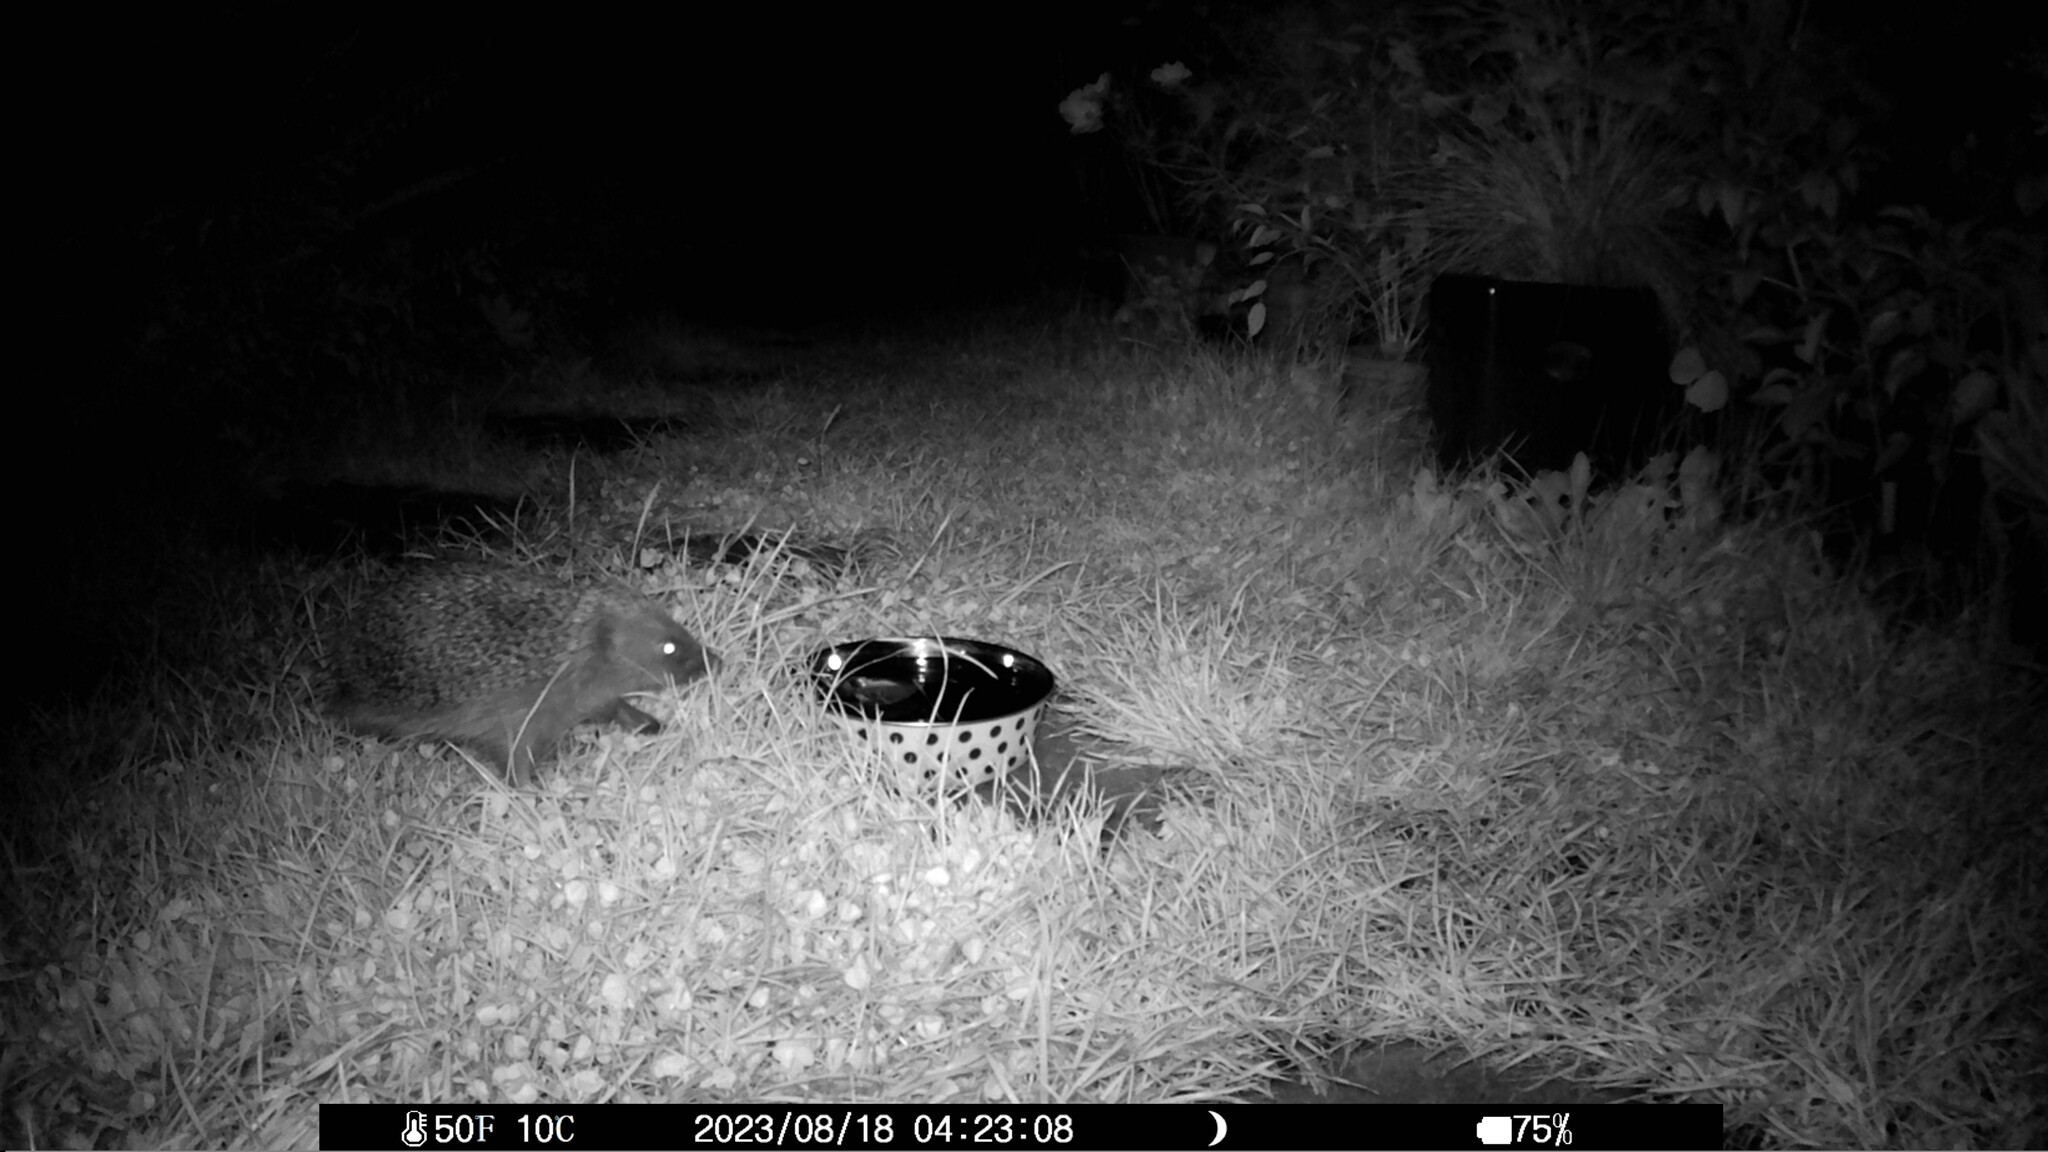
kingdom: Animalia
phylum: Chordata
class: Mammalia
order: Erinaceomorpha
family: Erinaceidae
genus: Erinaceus
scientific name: Erinaceus europaeus
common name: West european hedgehog
